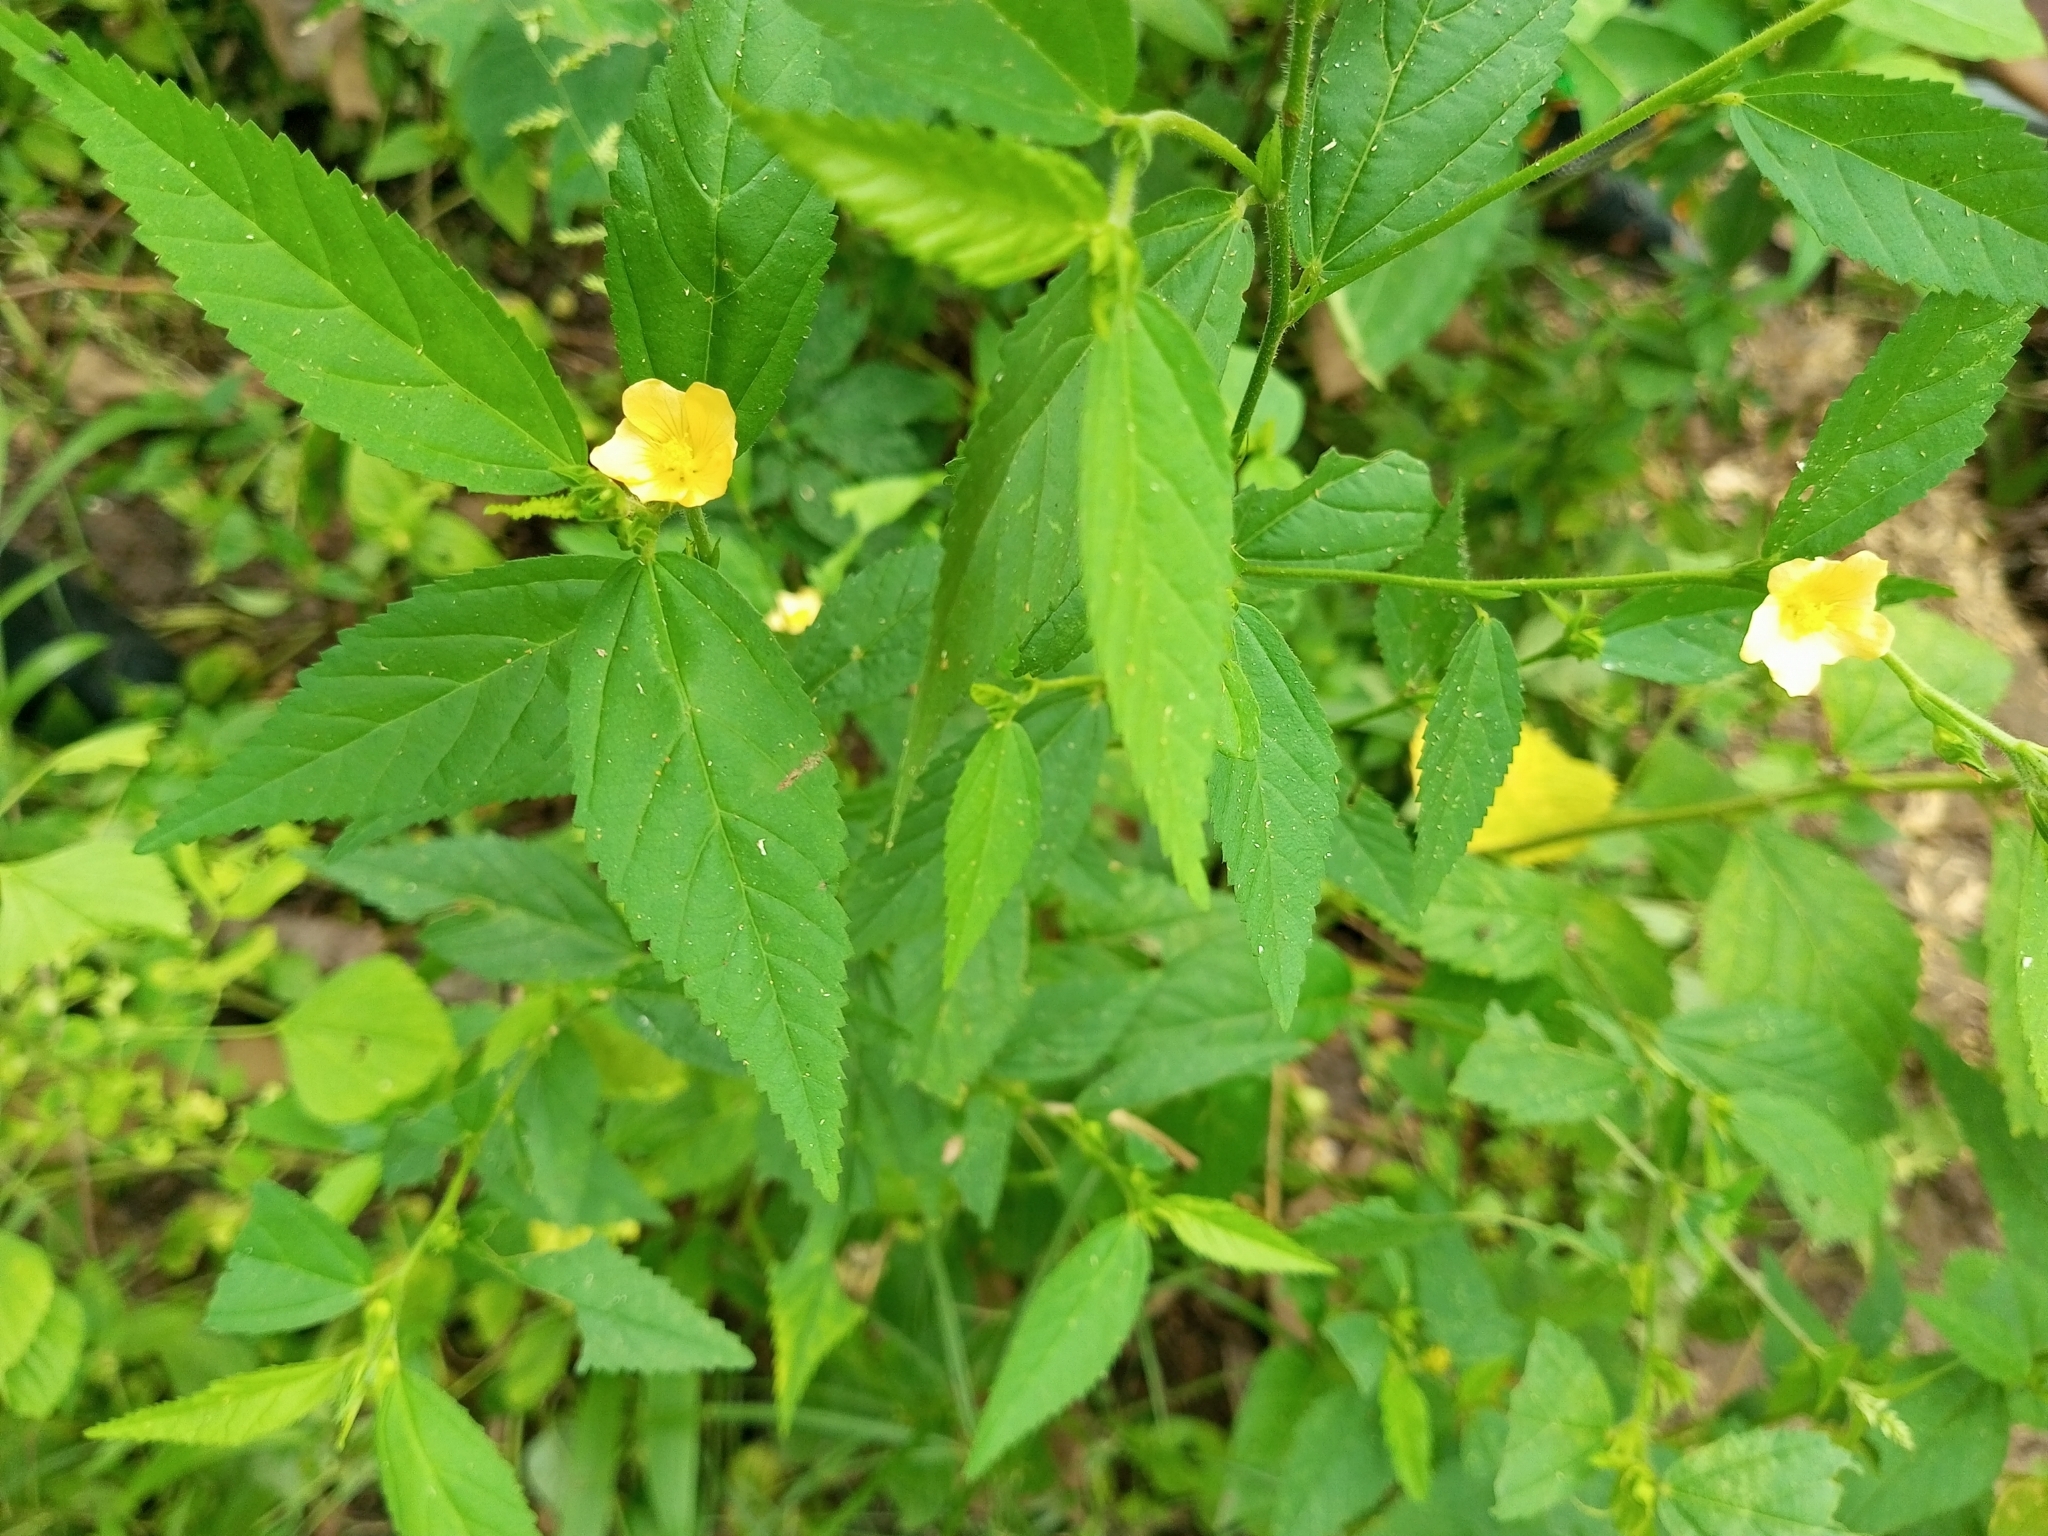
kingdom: Plantae
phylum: Tracheophyta
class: Magnoliopsida
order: Malvales
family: Malvaceae
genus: Sida
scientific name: Sida acuta
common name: Common wireweed
